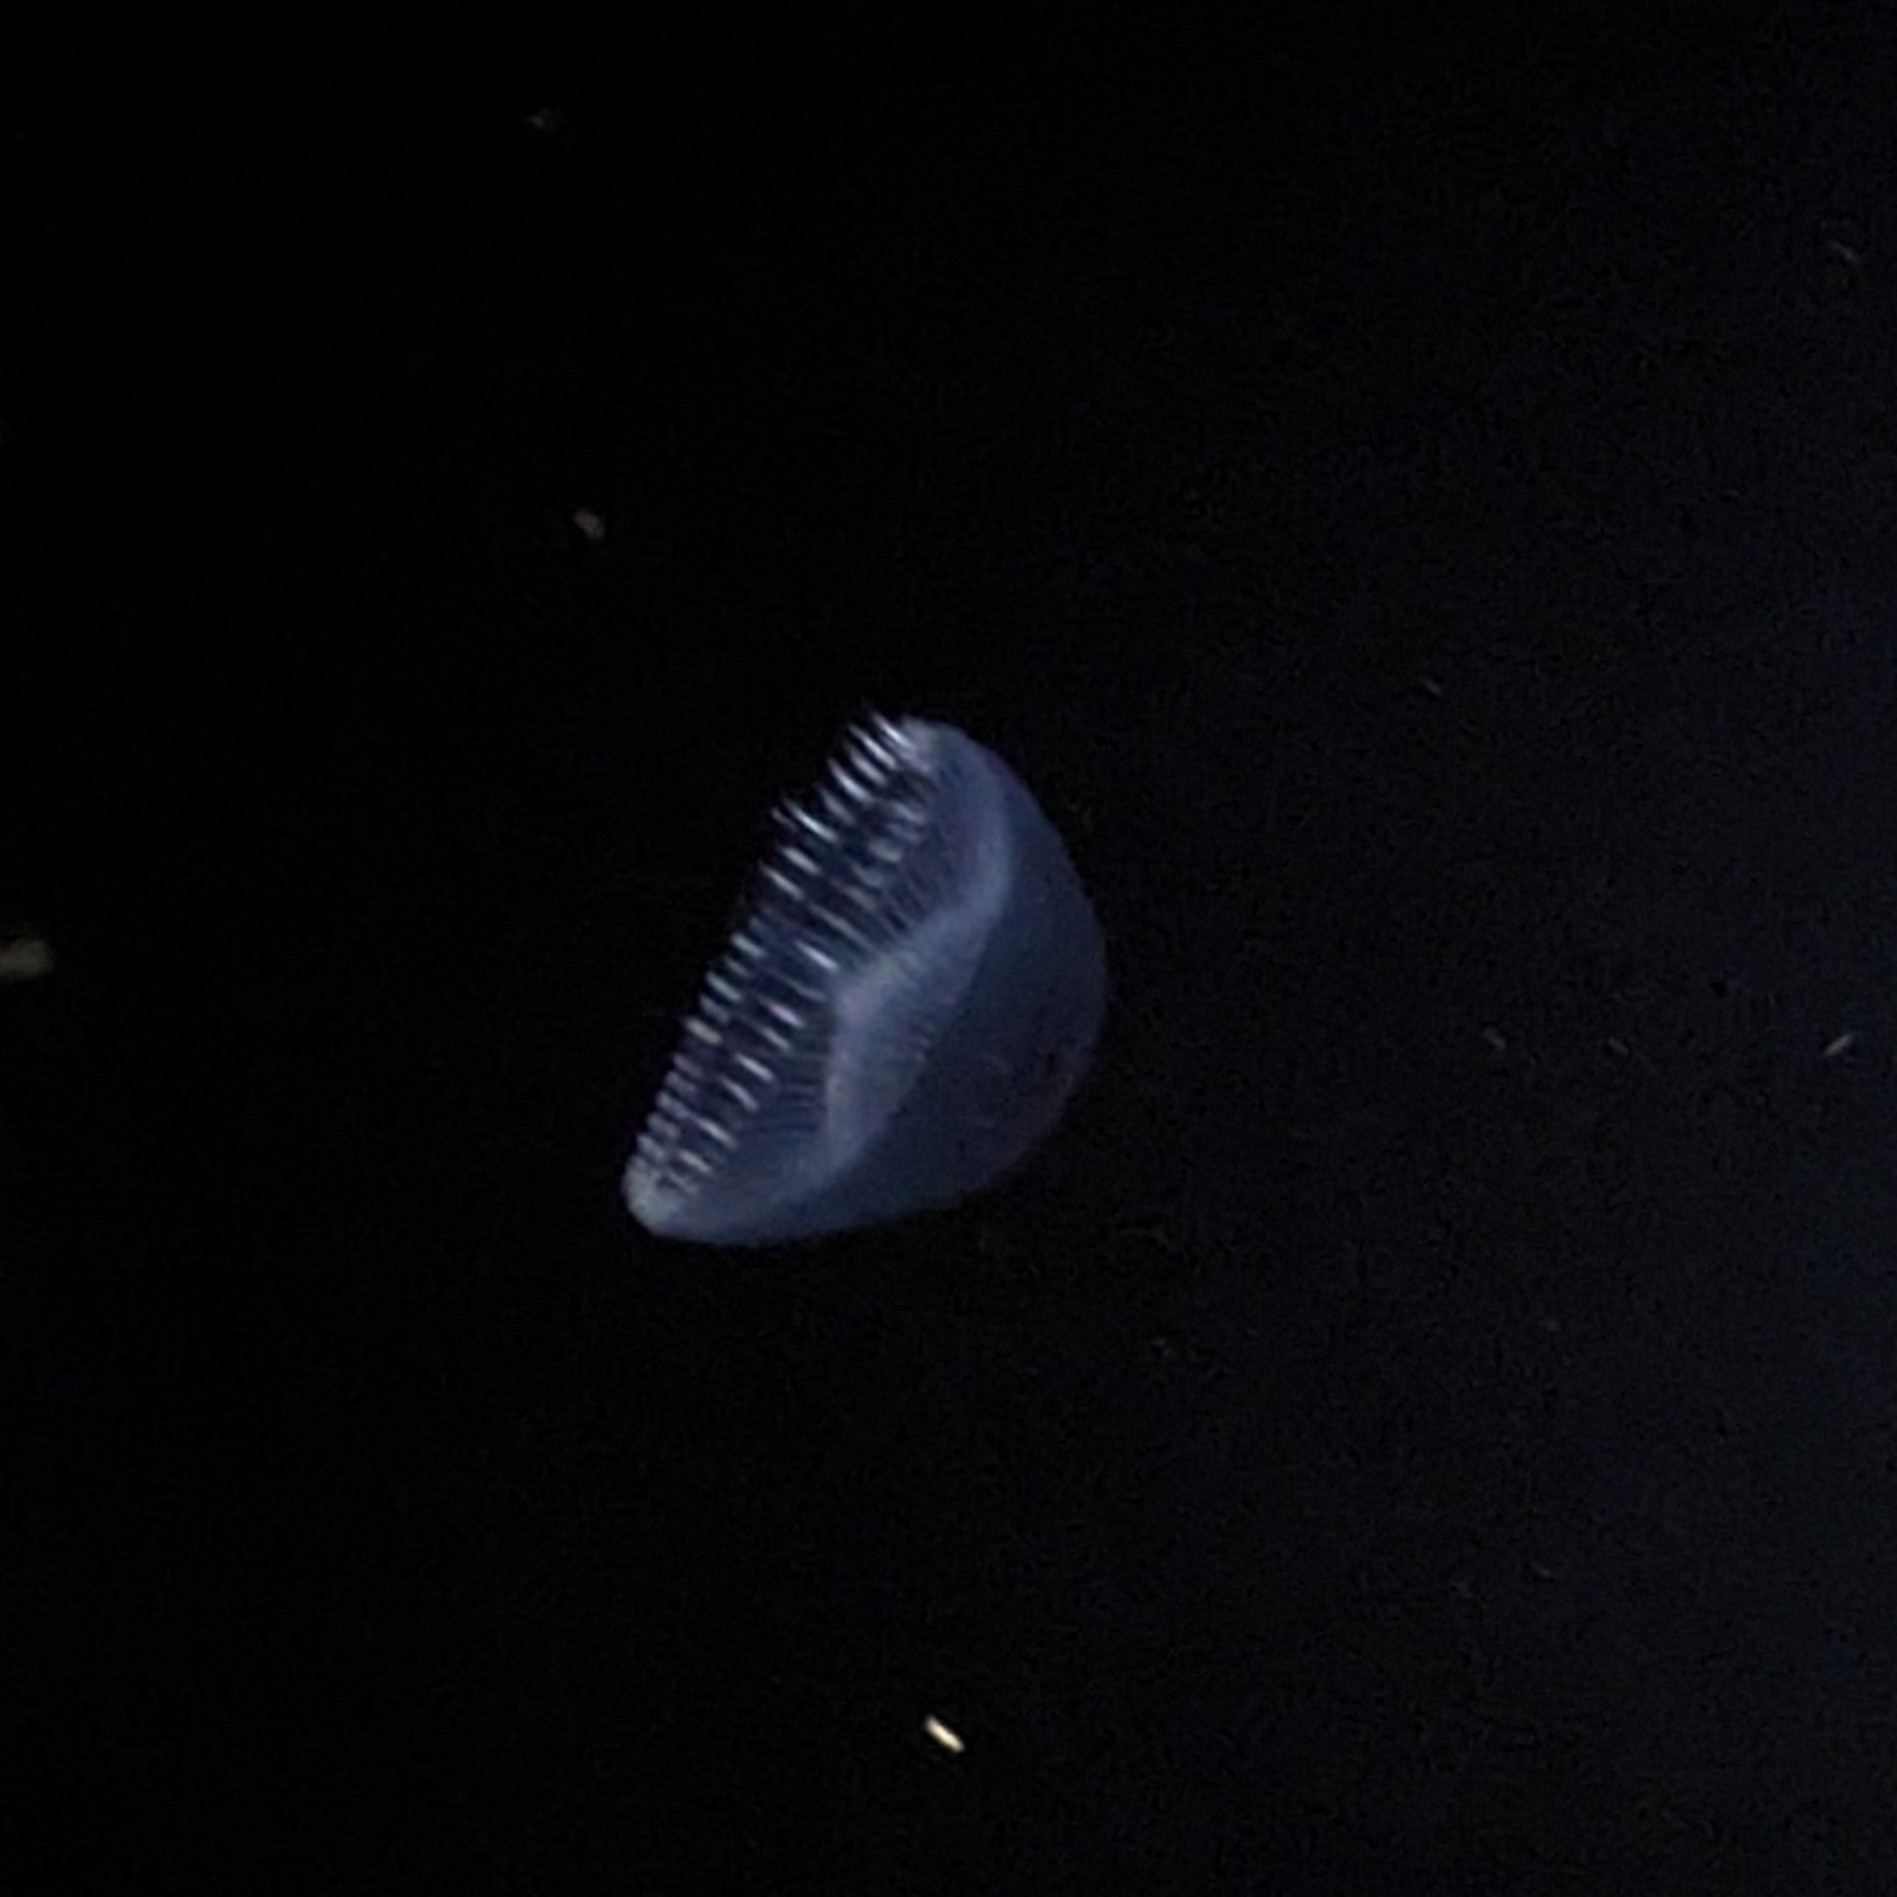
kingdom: Animalia
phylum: Cnidaria
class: Hydrozoa
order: Leptothecata
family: Aequoreidae
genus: Aequorea
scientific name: Aequorea victoria
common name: Water jellyfish
